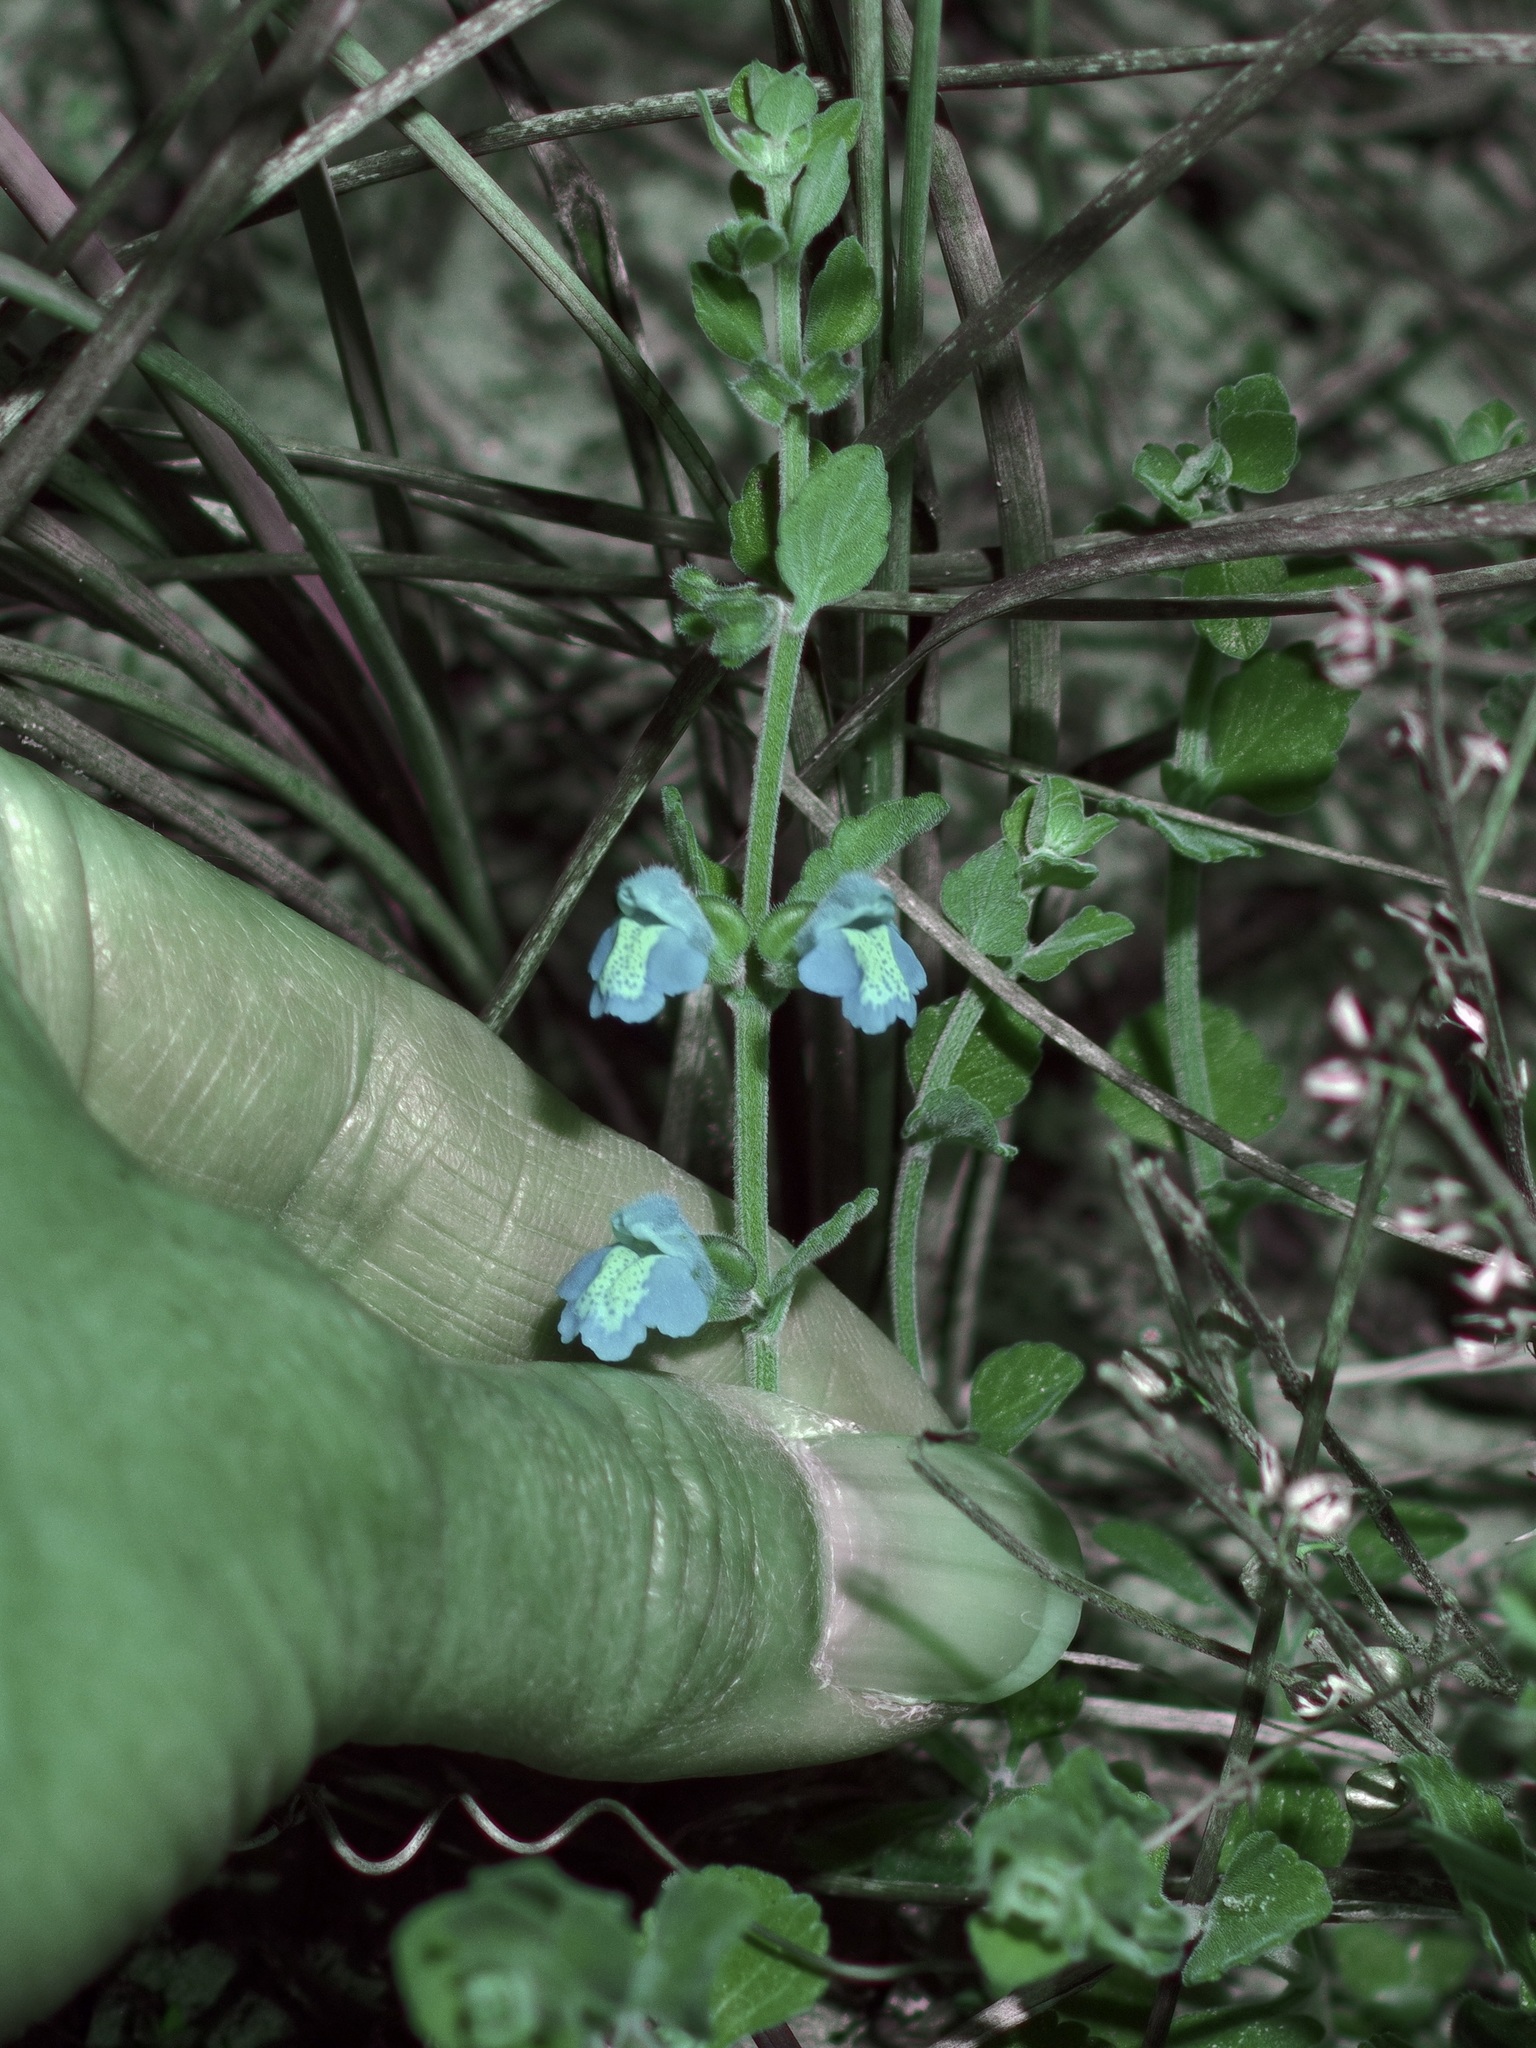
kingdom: Plantae
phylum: Tracheophyta
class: Magnoliopsida
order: Lamiales
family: Lamiaceae
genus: Scutellaria
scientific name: Scutellaria muriculata
